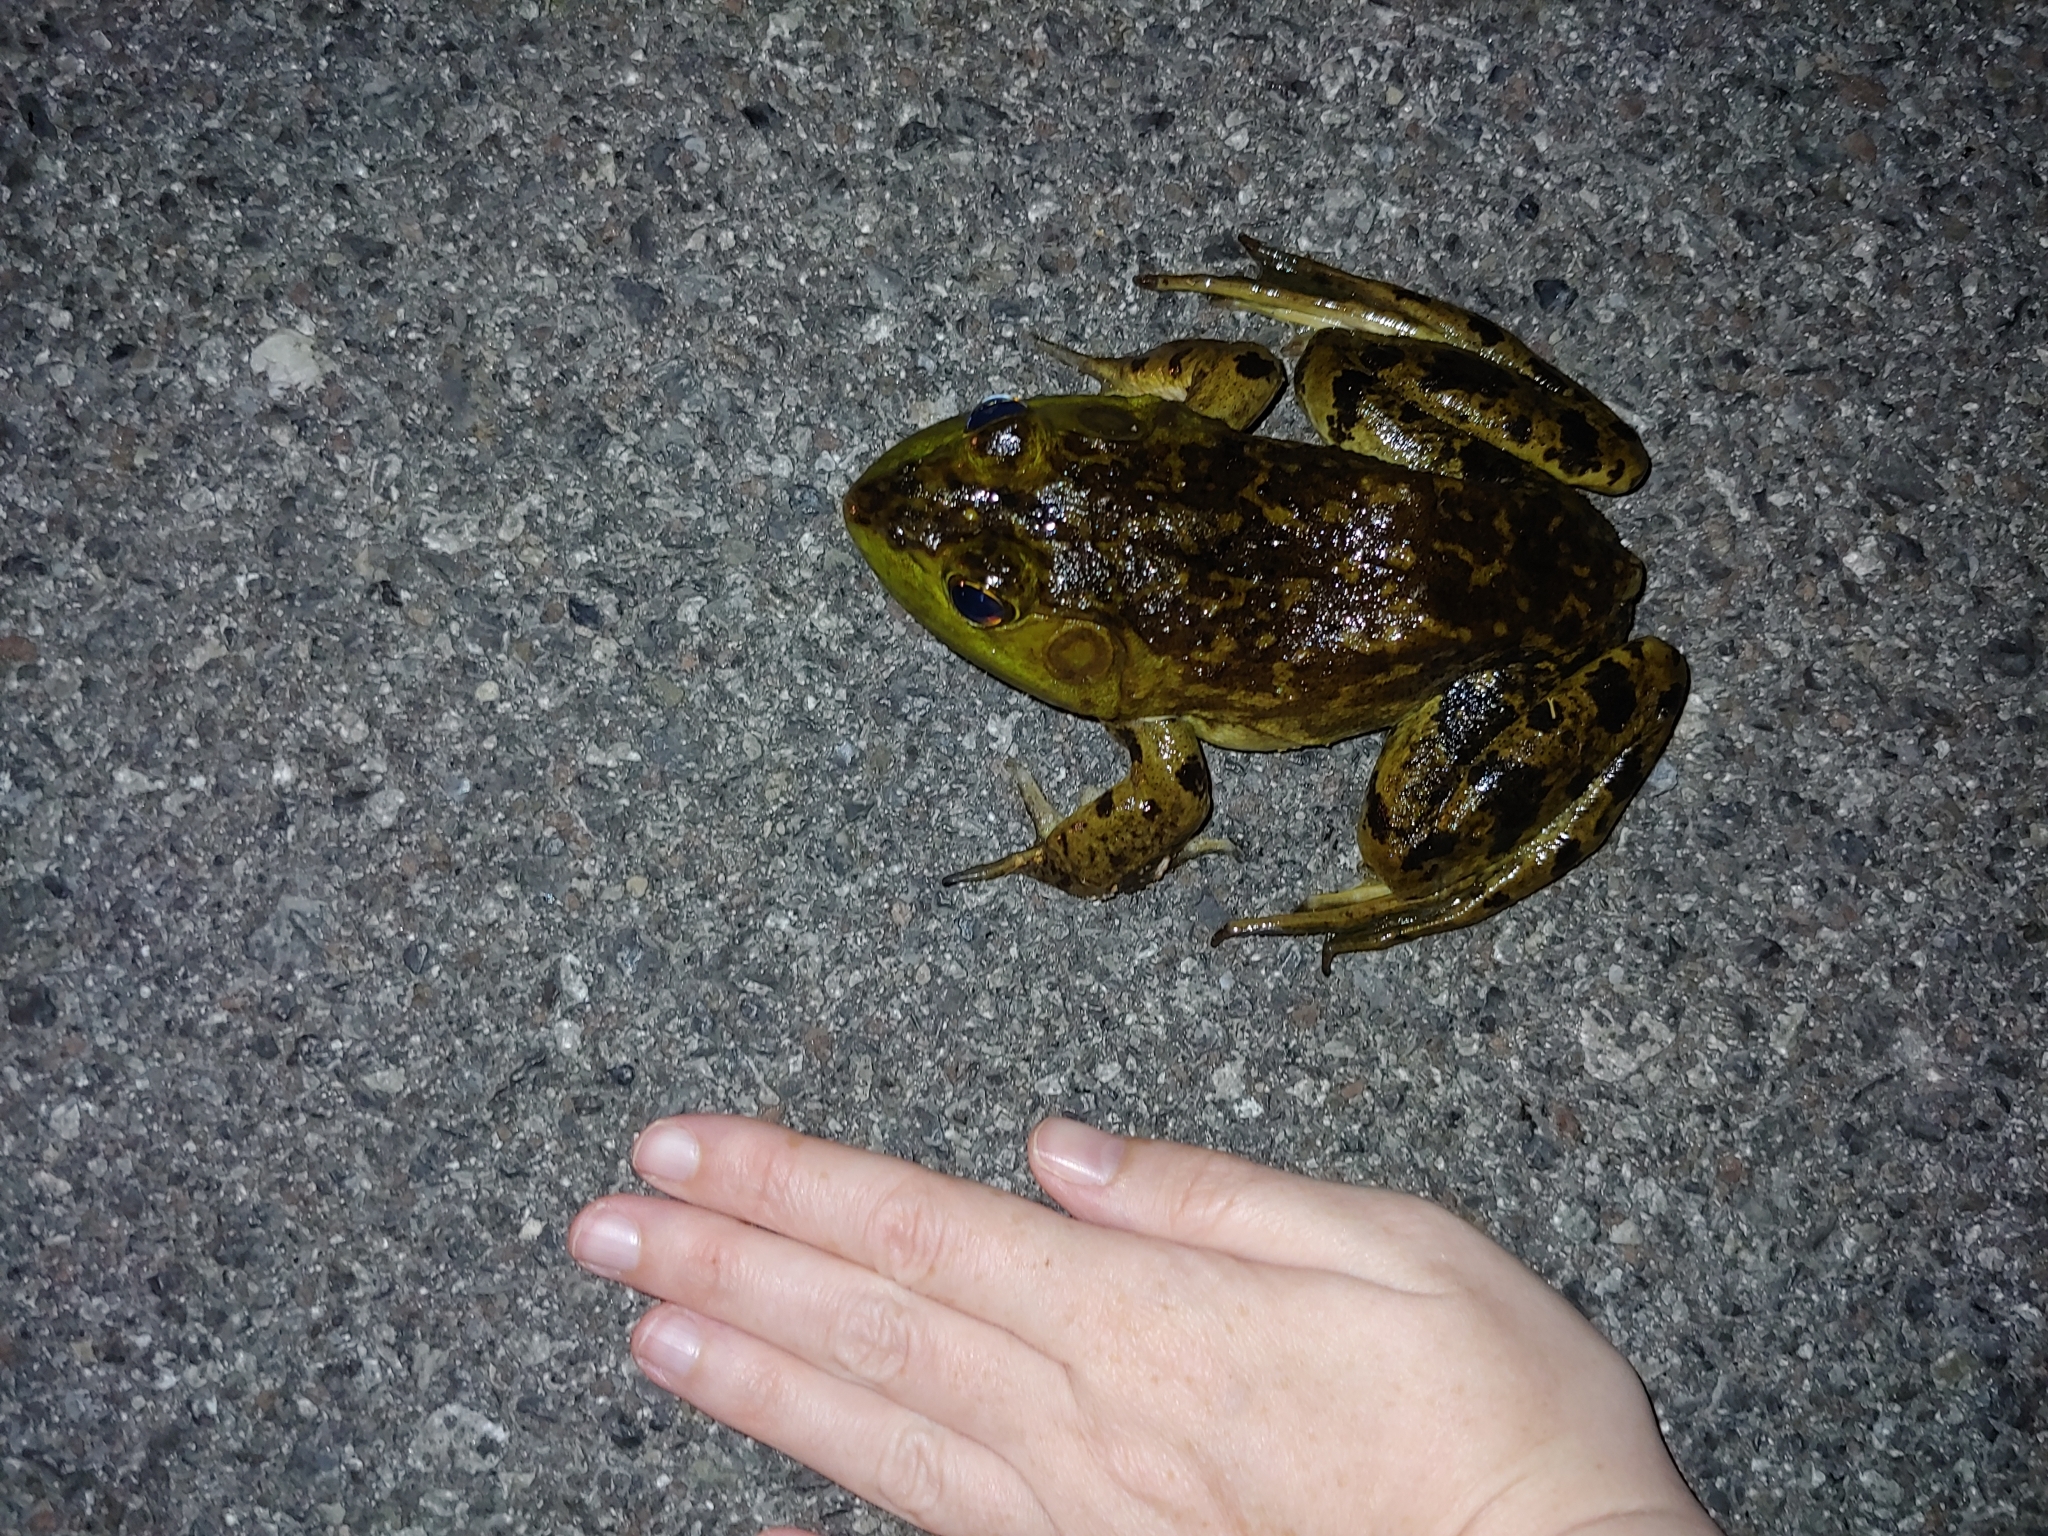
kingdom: Animalia
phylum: Chordata
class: Amphibia
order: Anura
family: Ranidae
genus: Lithobates
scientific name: Lithobates catesbeianus
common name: American bullfrog
